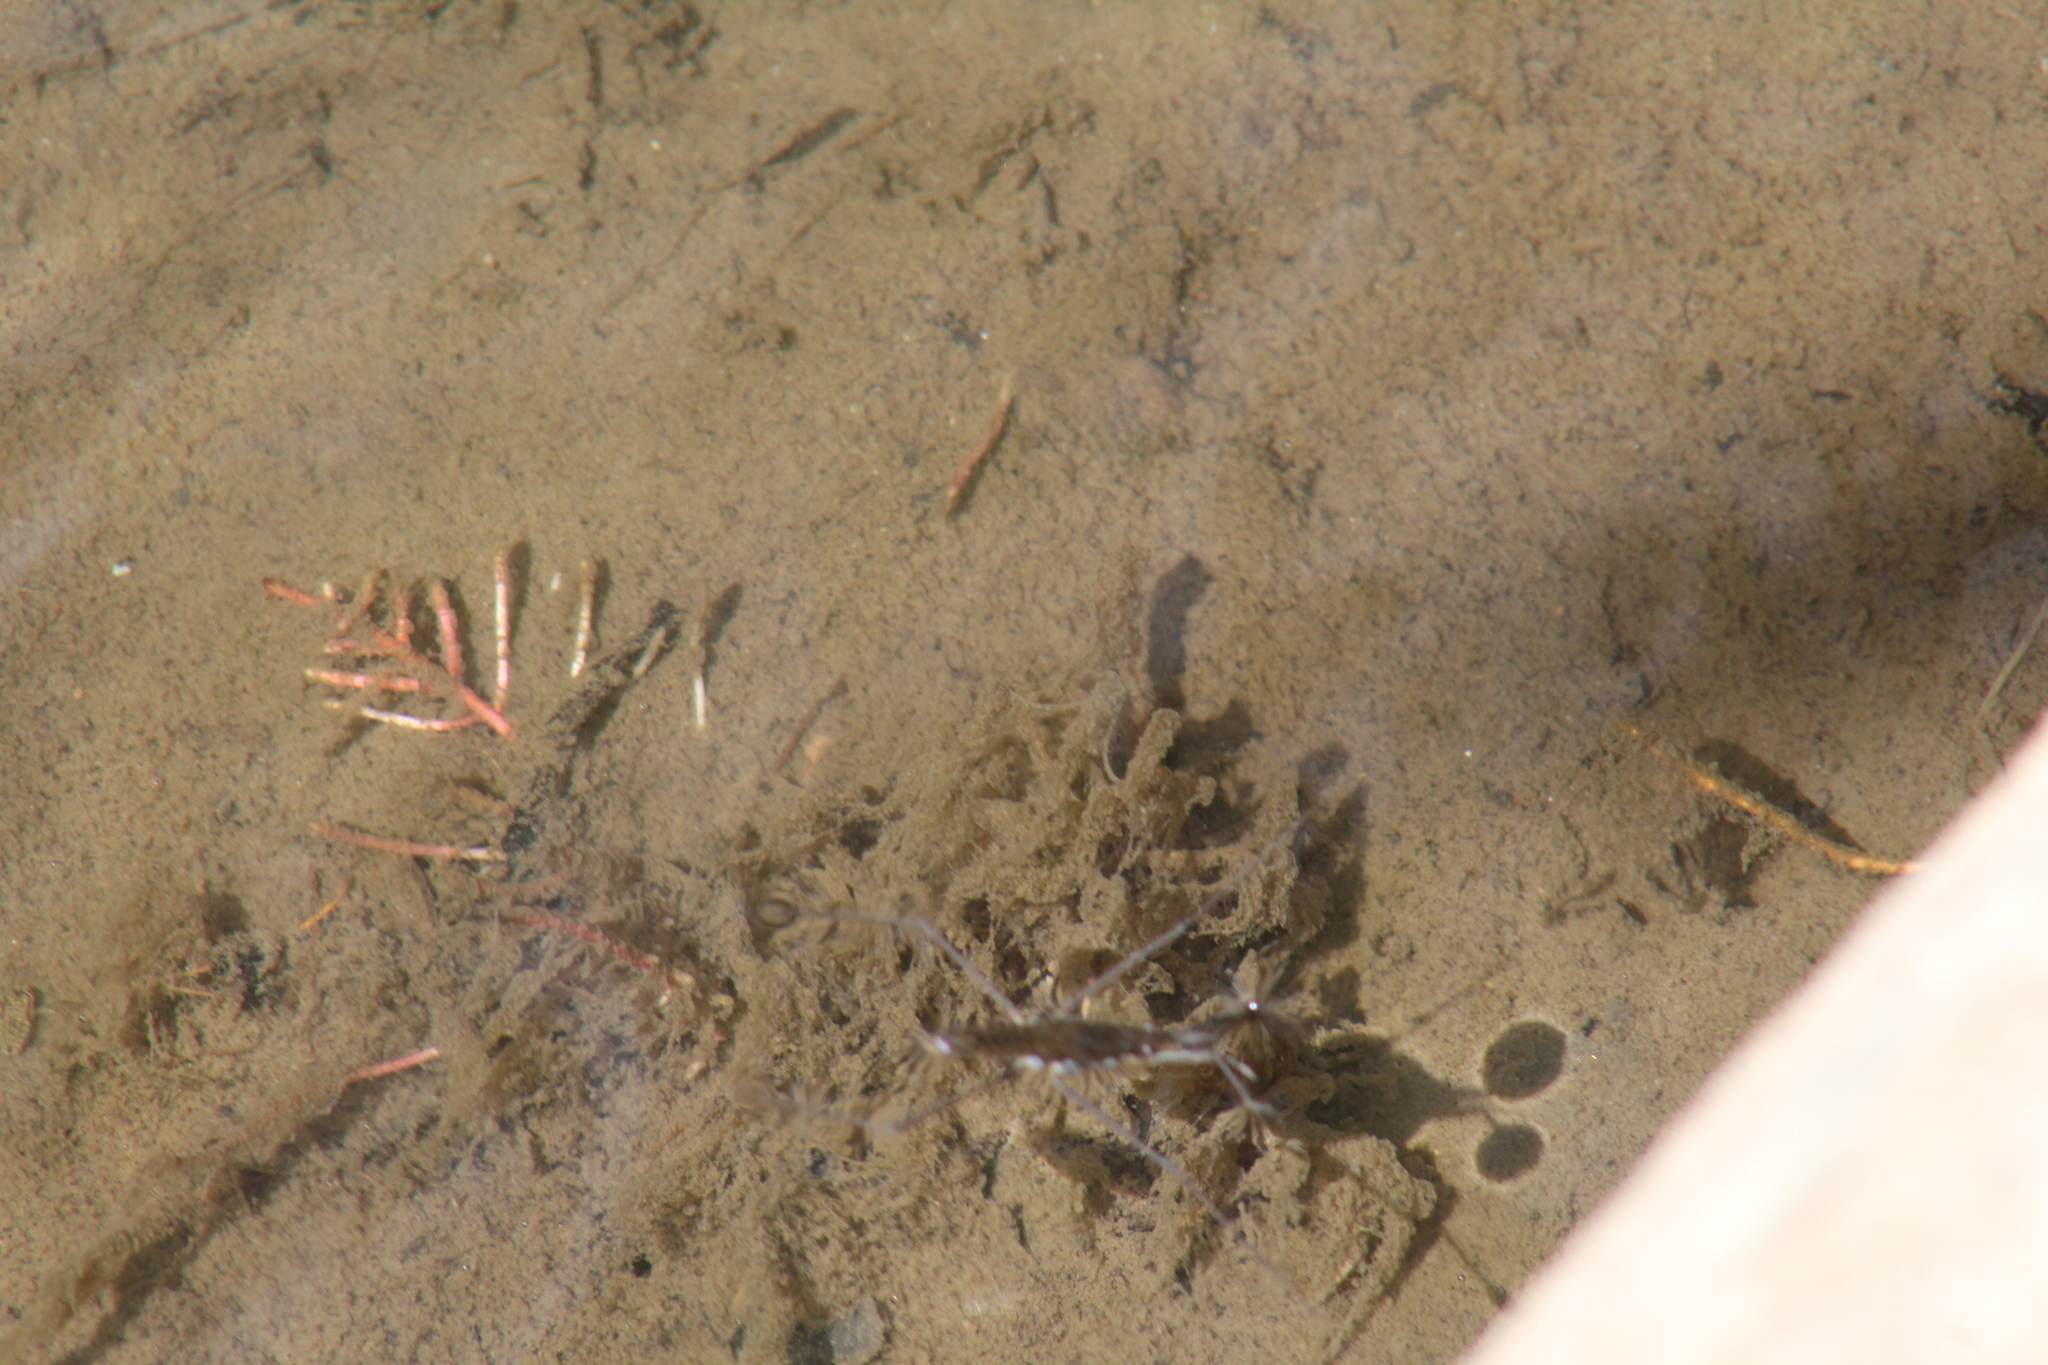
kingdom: Animalia
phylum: Arthropoda
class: Insecta
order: Hemiptera
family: Gerridae
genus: Aquarius
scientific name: Aquarius remigis
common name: Common water strider
